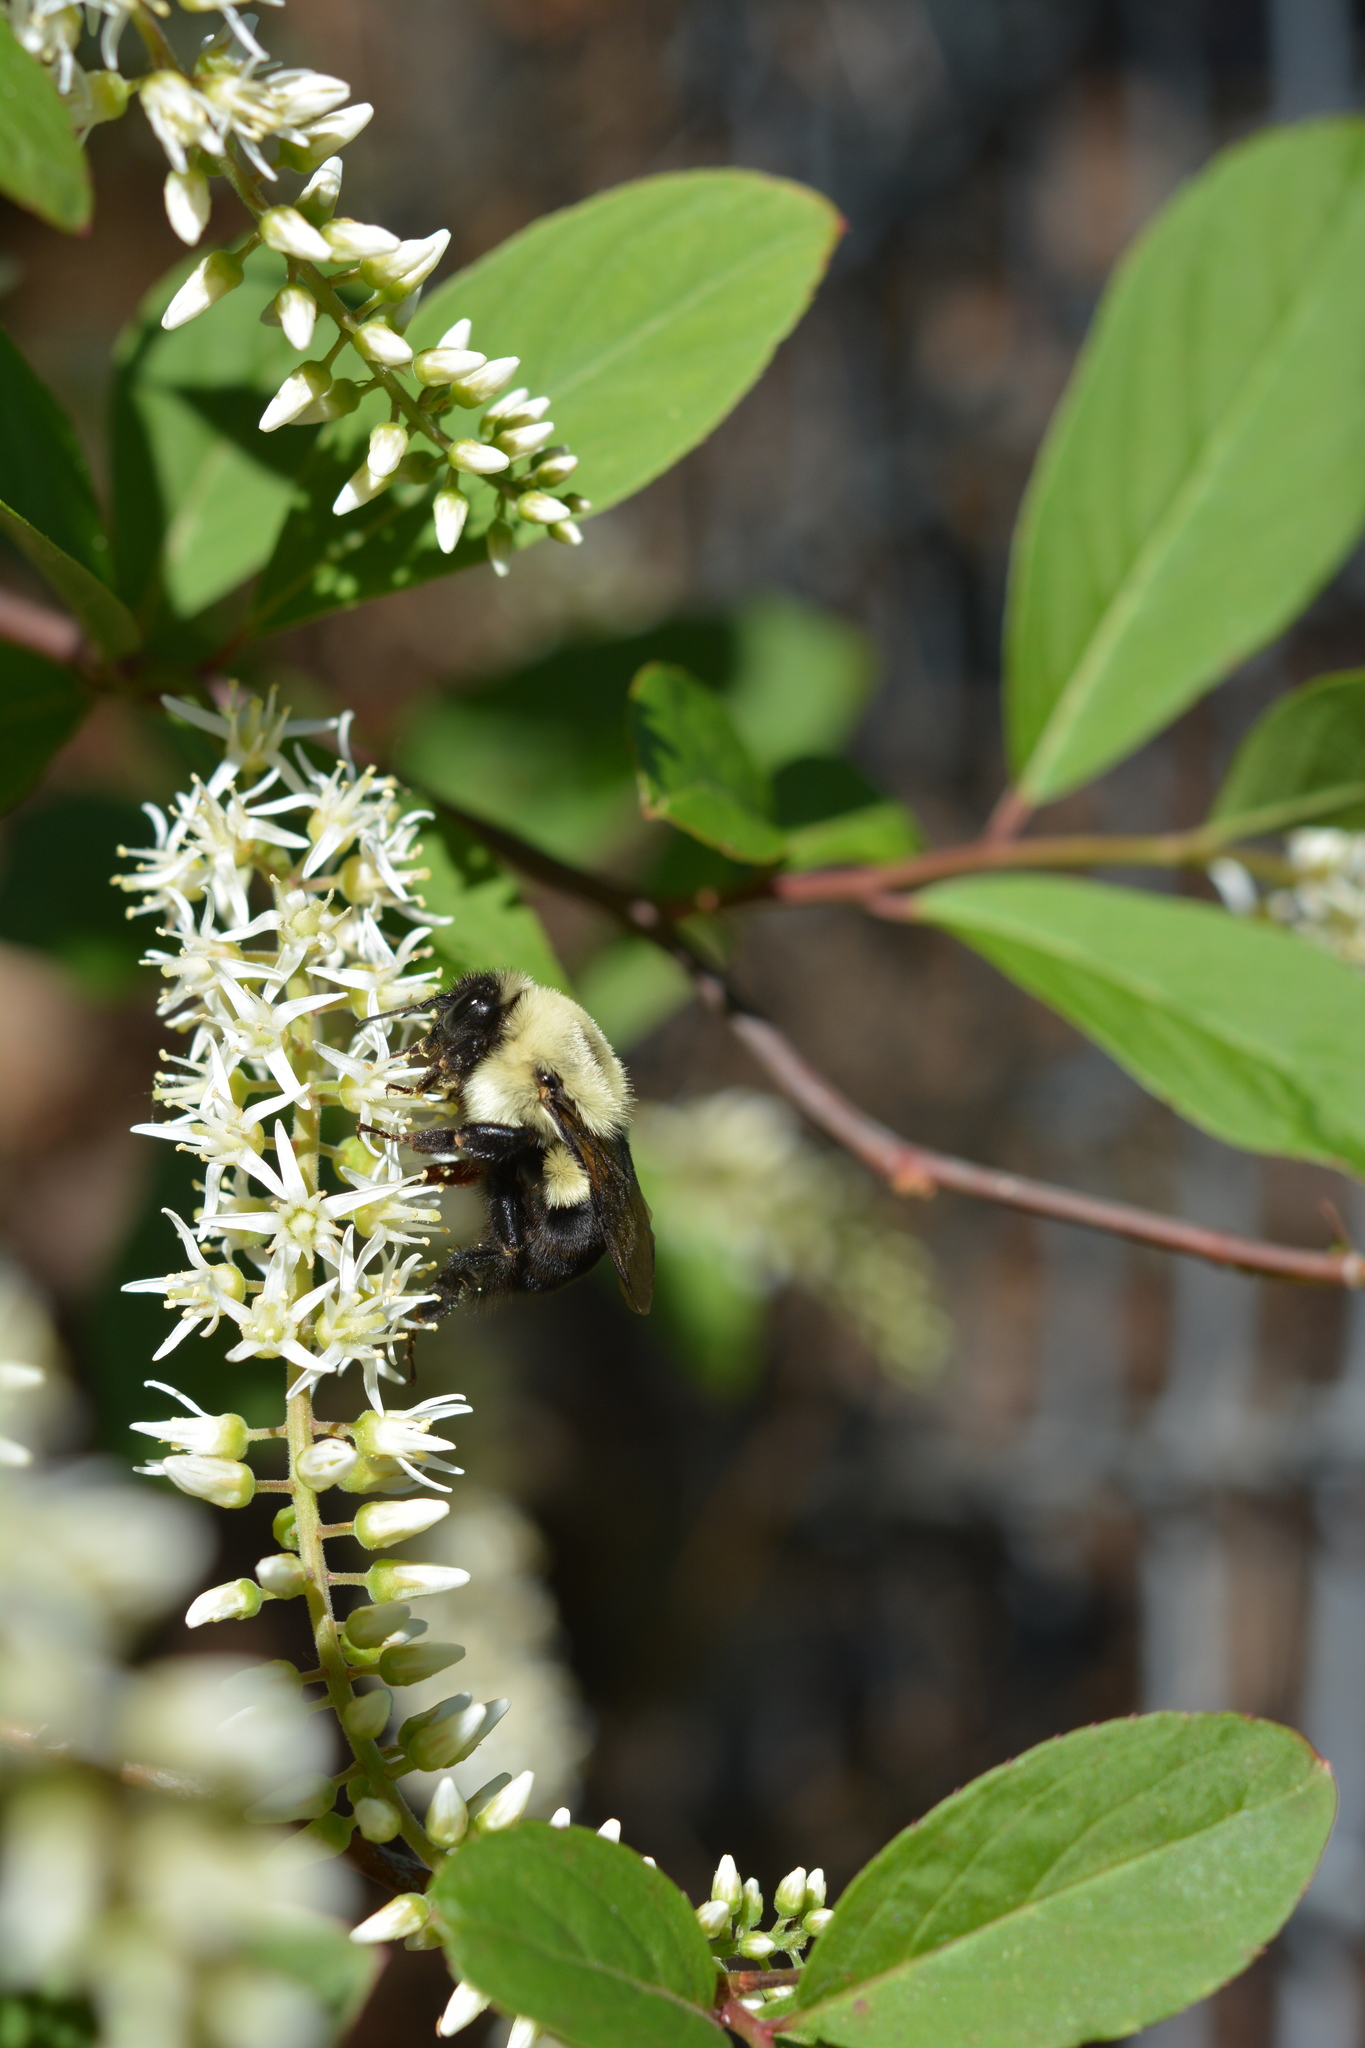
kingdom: Animalia
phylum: Arthropoda
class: Insecta
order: Hymenoptera
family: Apidae
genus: Bombus
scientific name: Bombus impatiens
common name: Common eastern bumble bee
